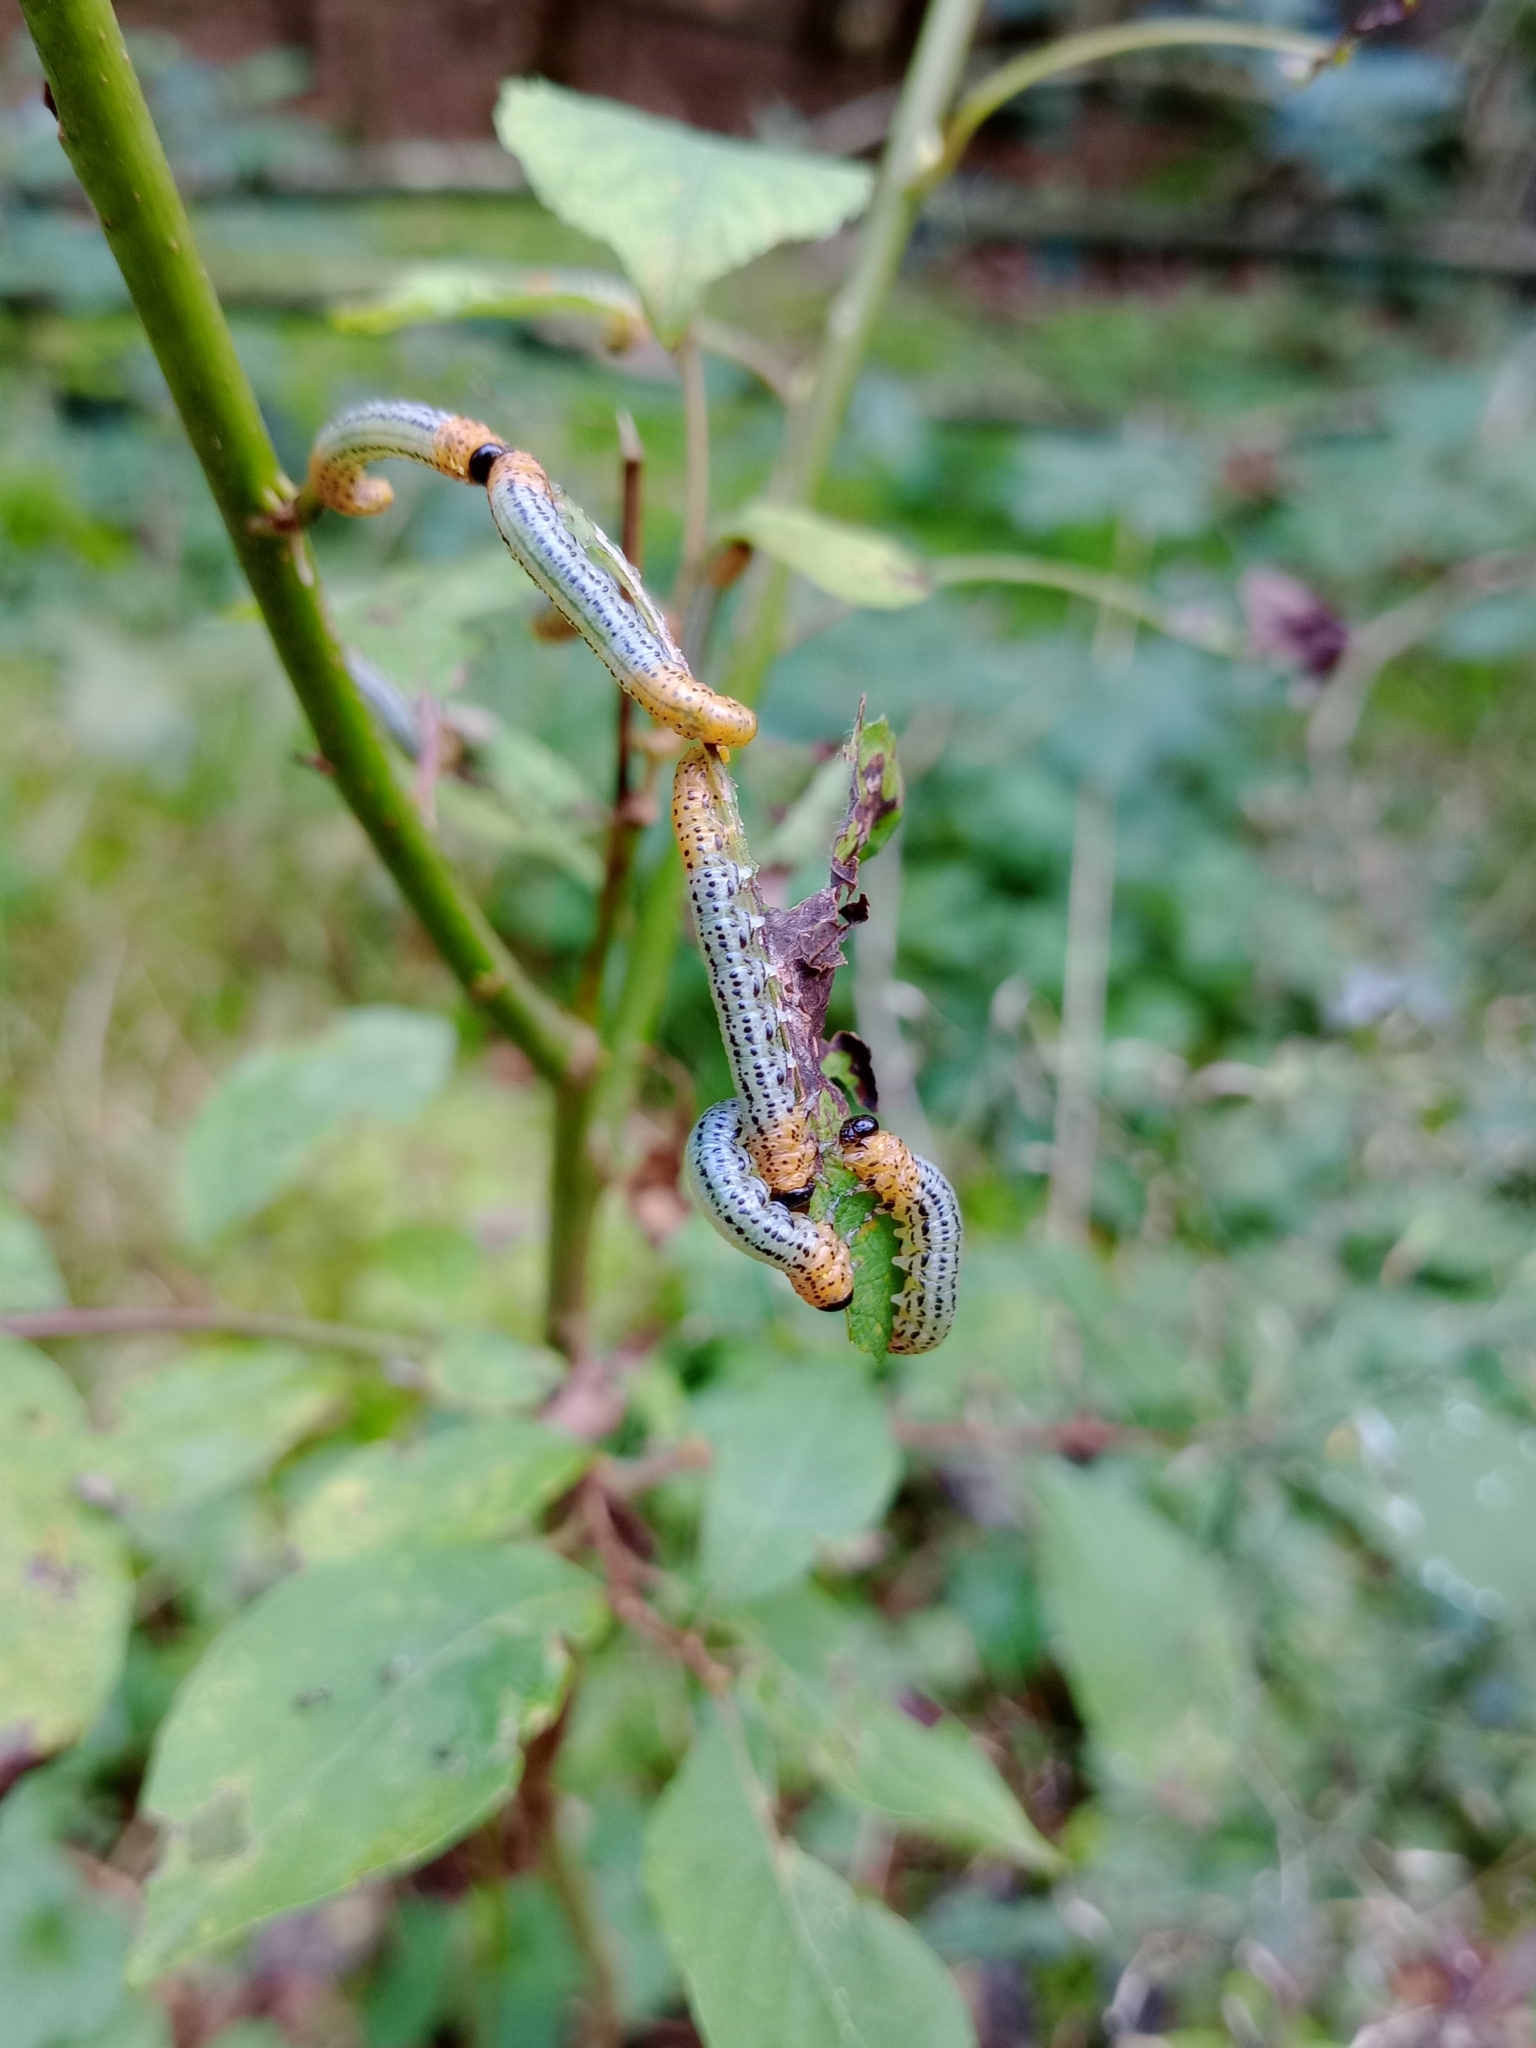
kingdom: Animalia
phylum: Arthropoda
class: Insecta
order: Hymenoptera
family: Tenthredinidae
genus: Nematus
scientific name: Nematus miliaris
